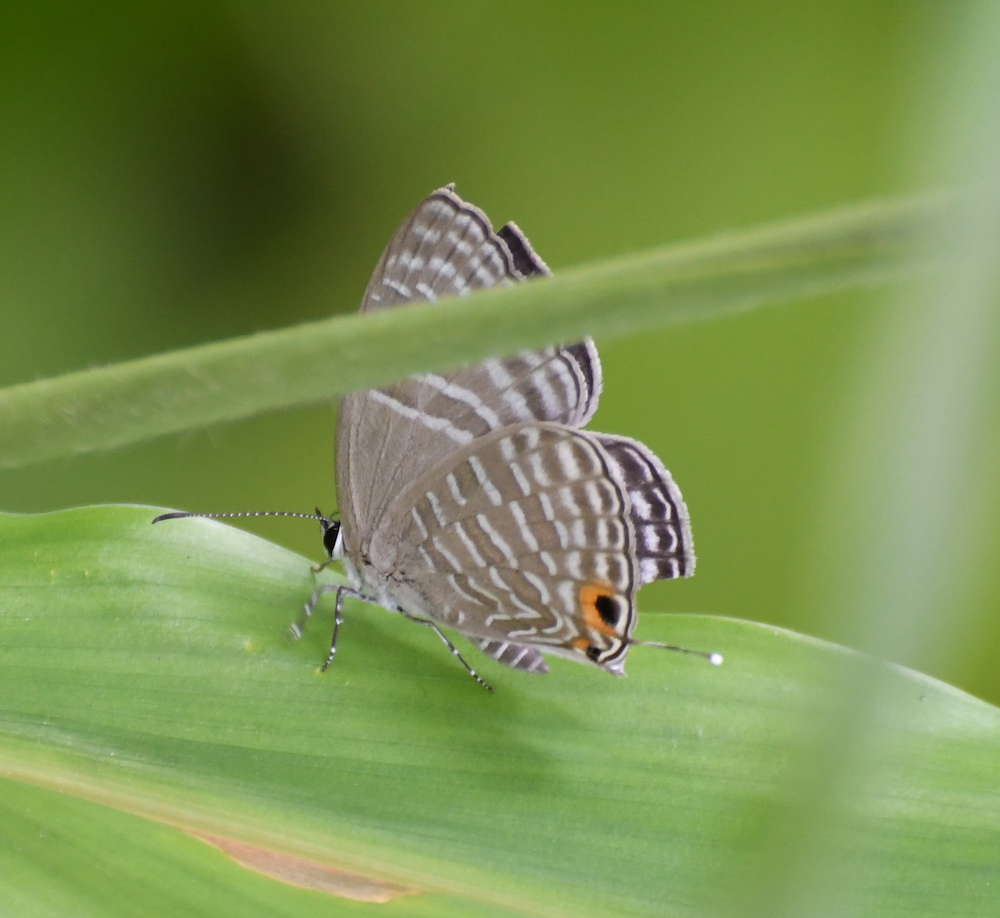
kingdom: Animalia
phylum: Arthropoda
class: Insecta
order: Lepidoptera
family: Lycaenidae
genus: Jamides
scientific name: Jamides alecto
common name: Metallic cerulean
